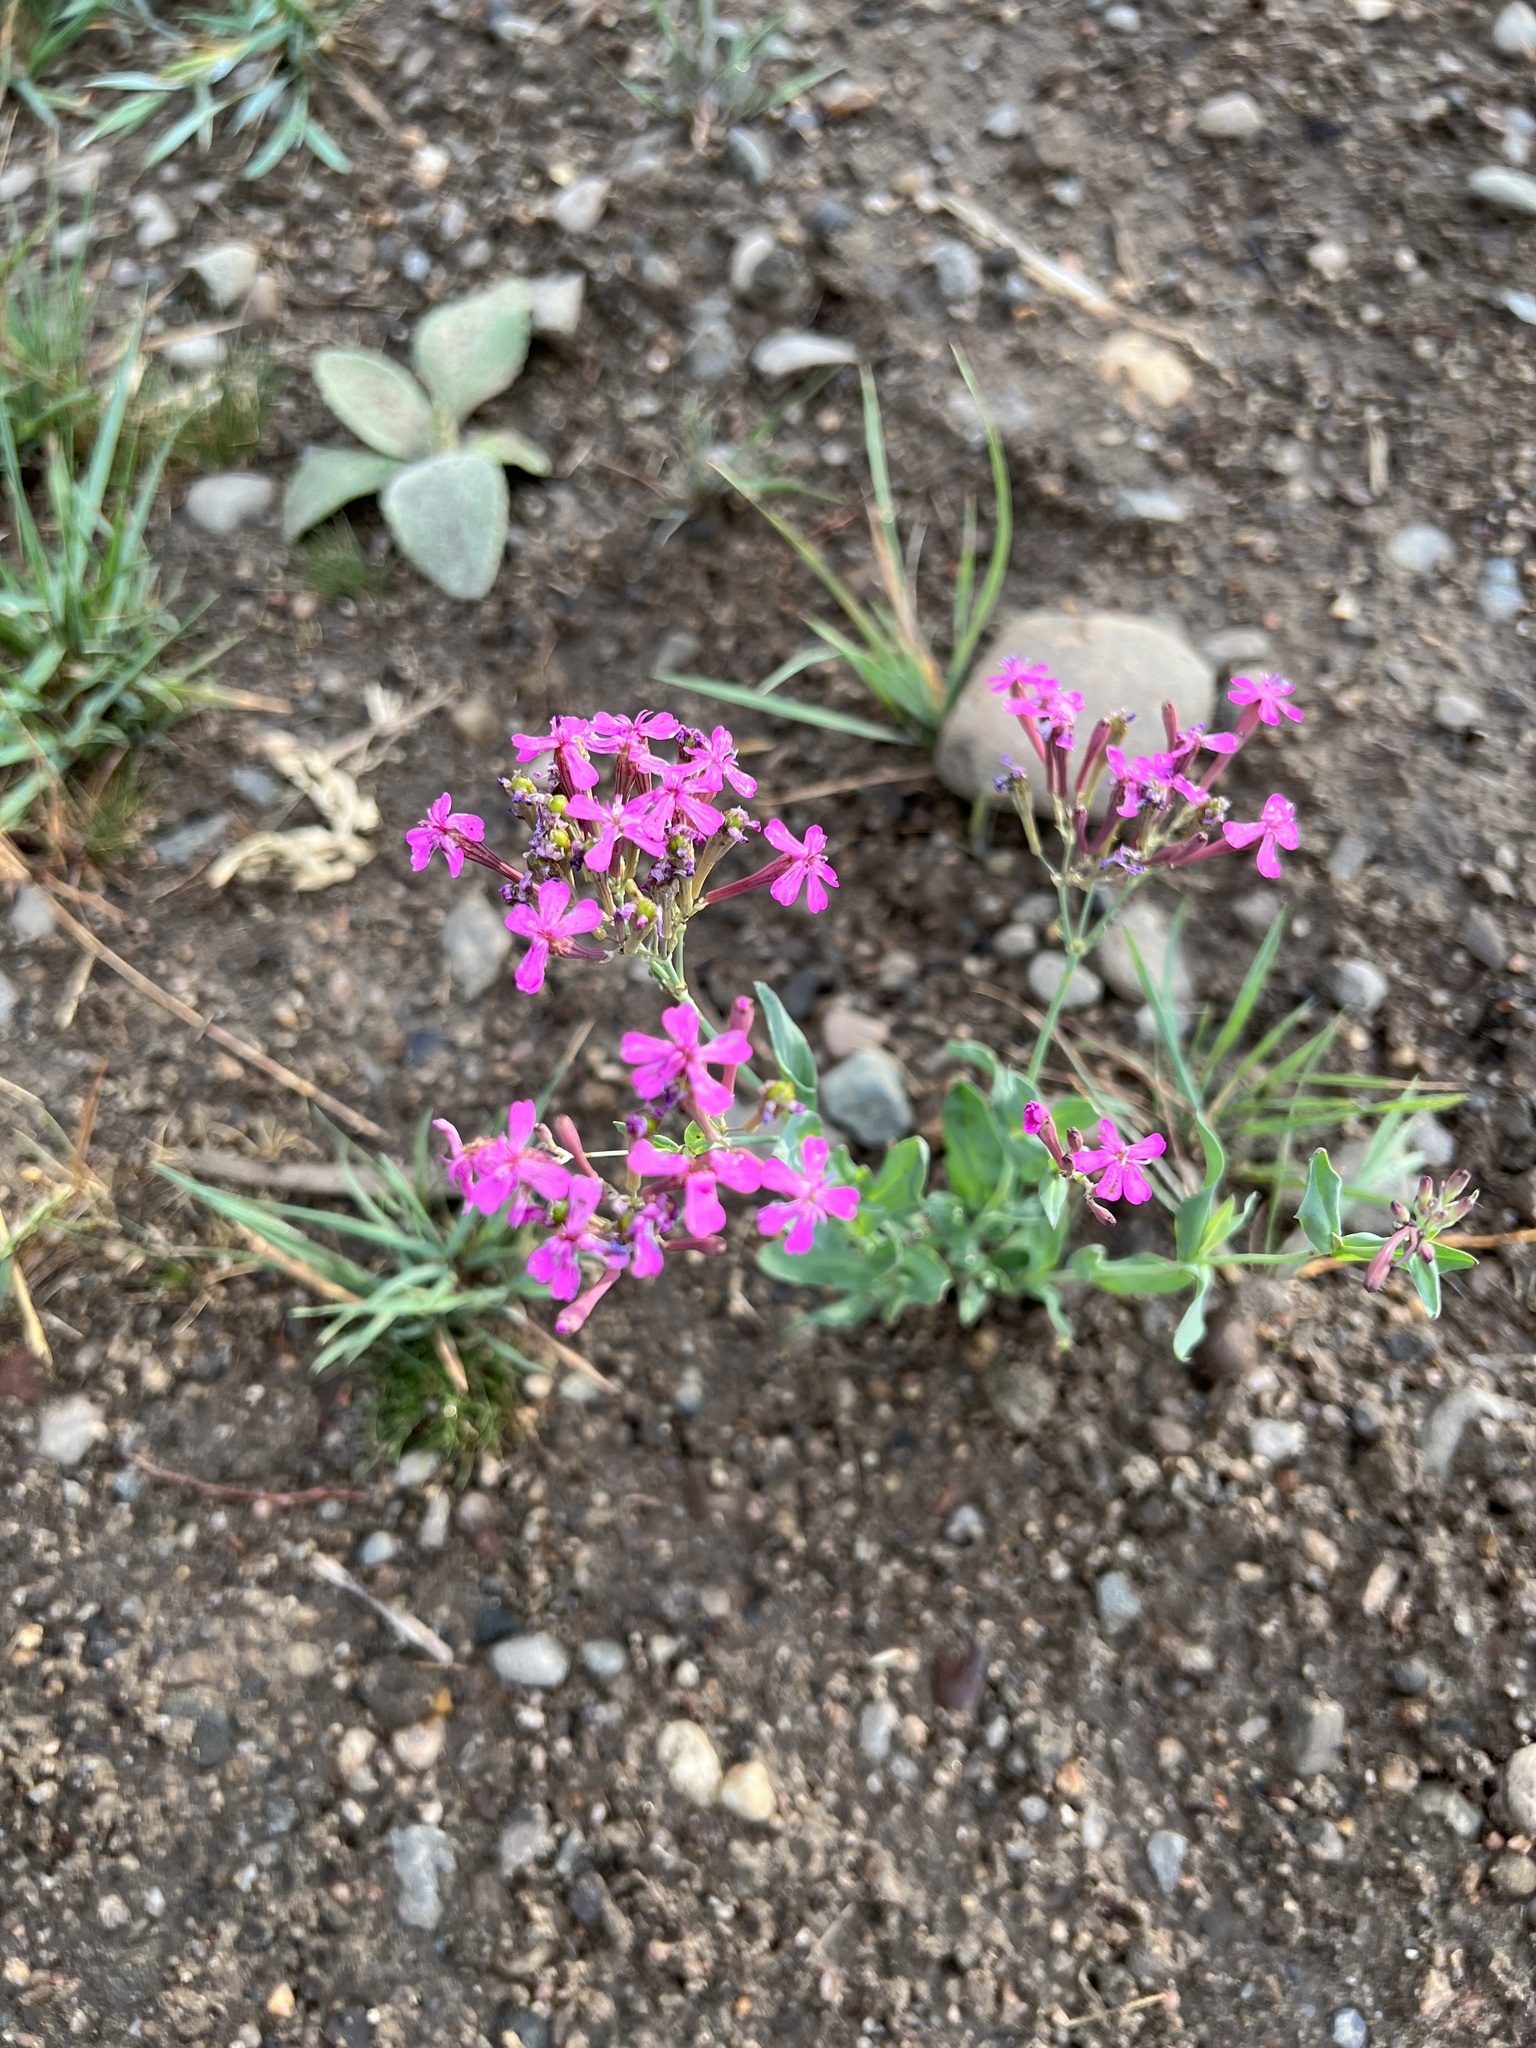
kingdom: Plantae
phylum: Tracheophyta
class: Magnoliopsida
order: Caryophyllales
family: Caryophyllaceae
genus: Atocion
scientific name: Atocion armeria
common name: Sweet william catchfly
